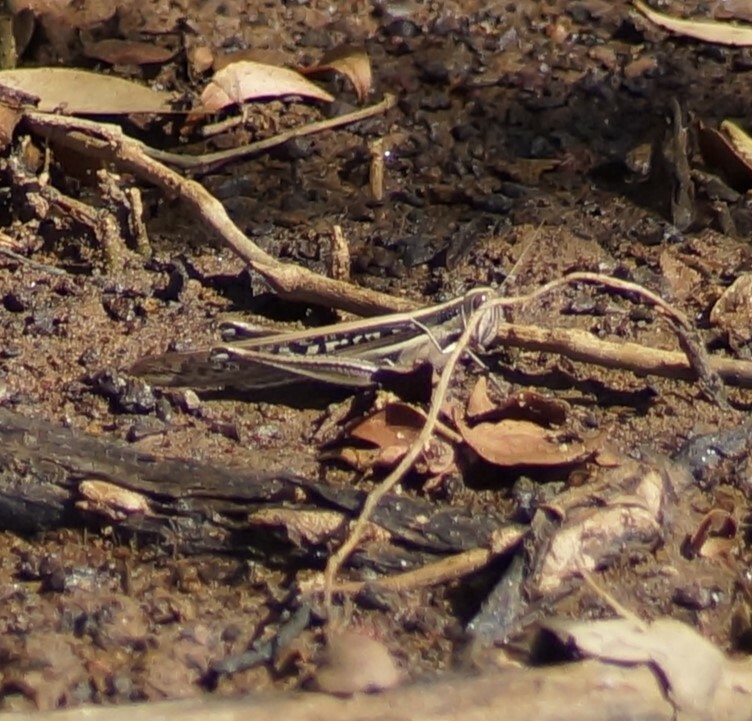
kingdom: Animalia
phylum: Arthropoda
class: Insecta
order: Orthoptera
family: Acrididae
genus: Austracris
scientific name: Austracris guttulosa
